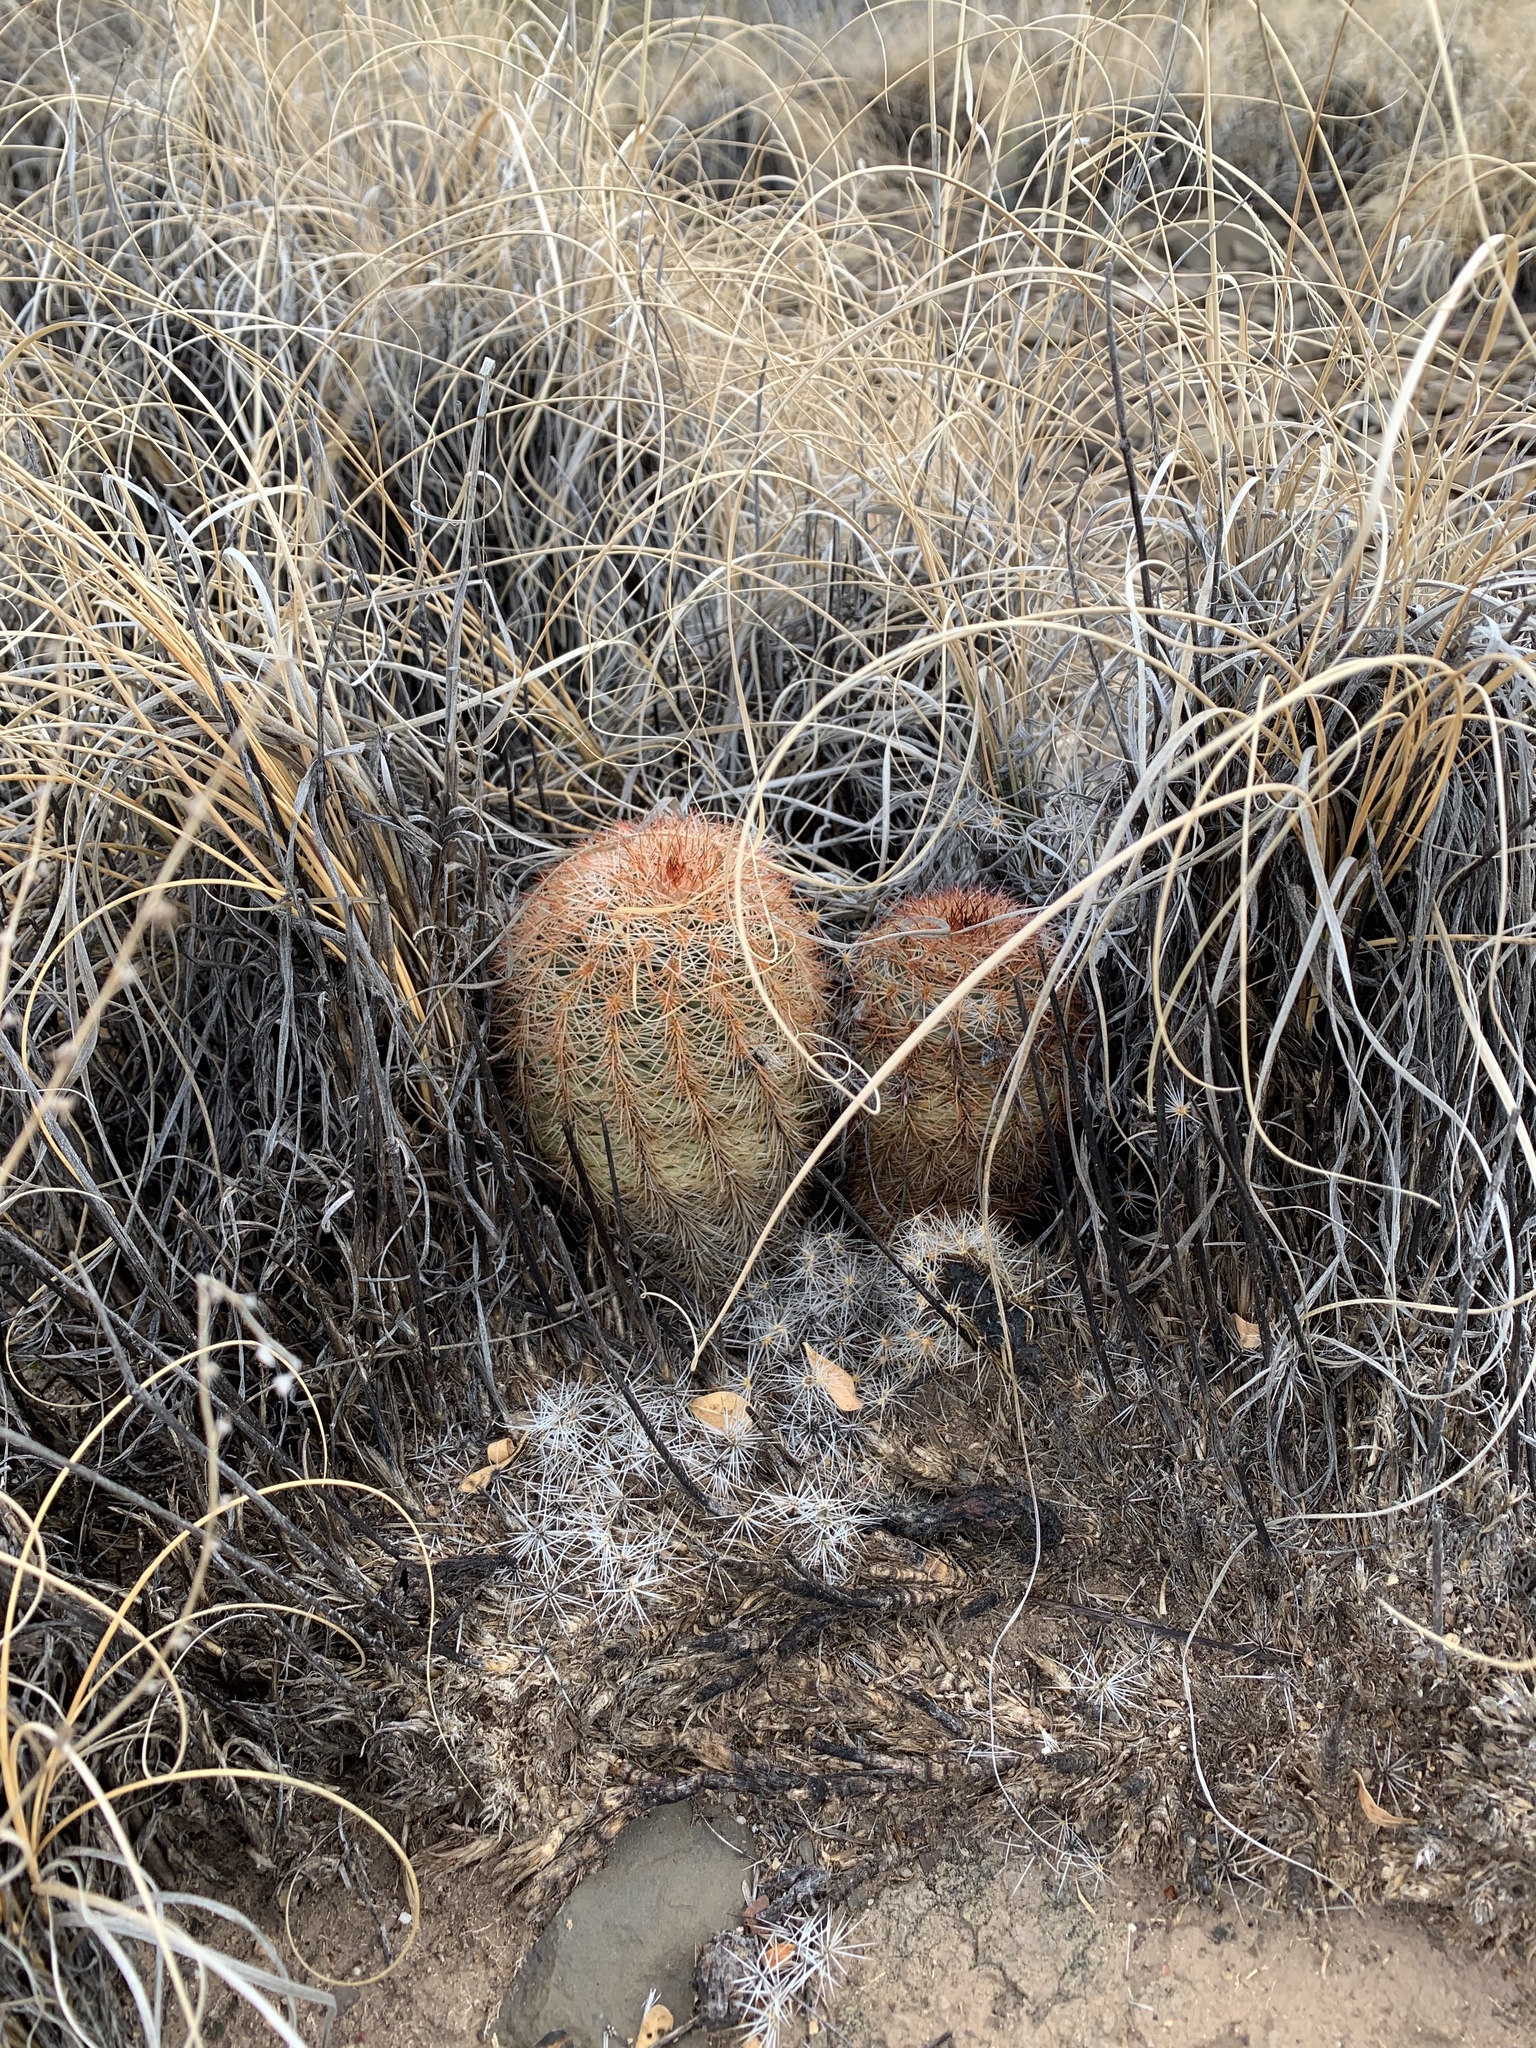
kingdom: Plantae
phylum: Tracheophyta
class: Magnoliopsida
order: Caryophyllales
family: Cactaceae
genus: Echinocereus
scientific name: Echinocereus dasyacanthus
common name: Spiny hedgehog cactus
